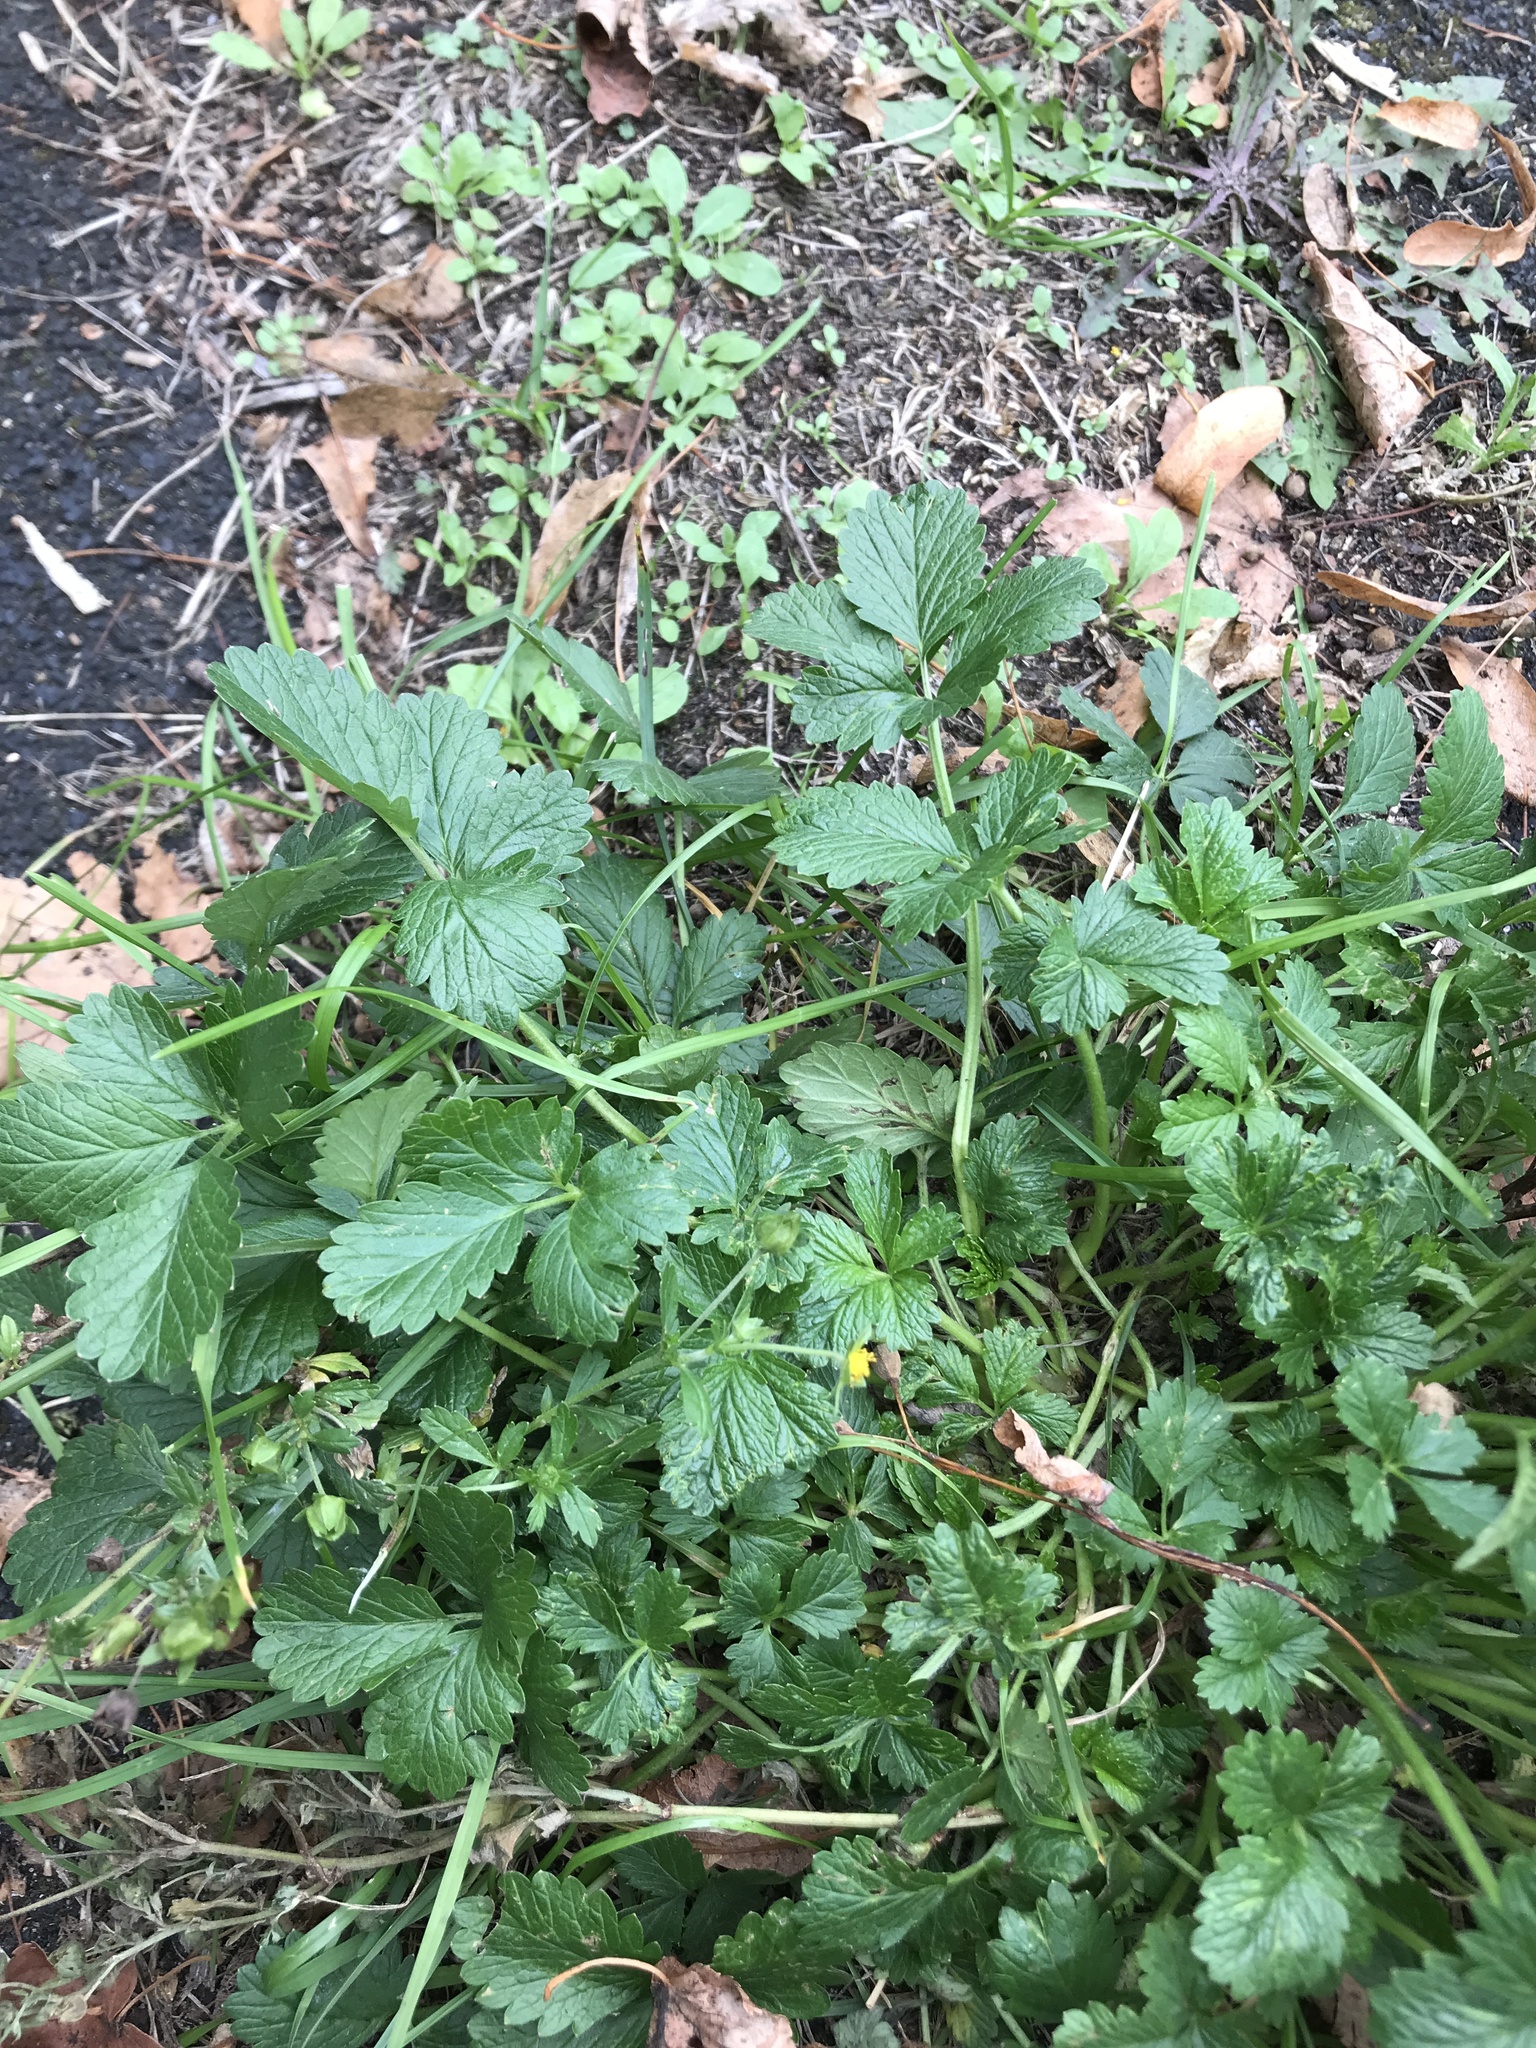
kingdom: Plantae
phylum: Tracheophyta
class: Magnoliopsida
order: Rosales
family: Rosaceae
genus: Potentilla
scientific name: Potentilla intermedia
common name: Downy cinquefoil
